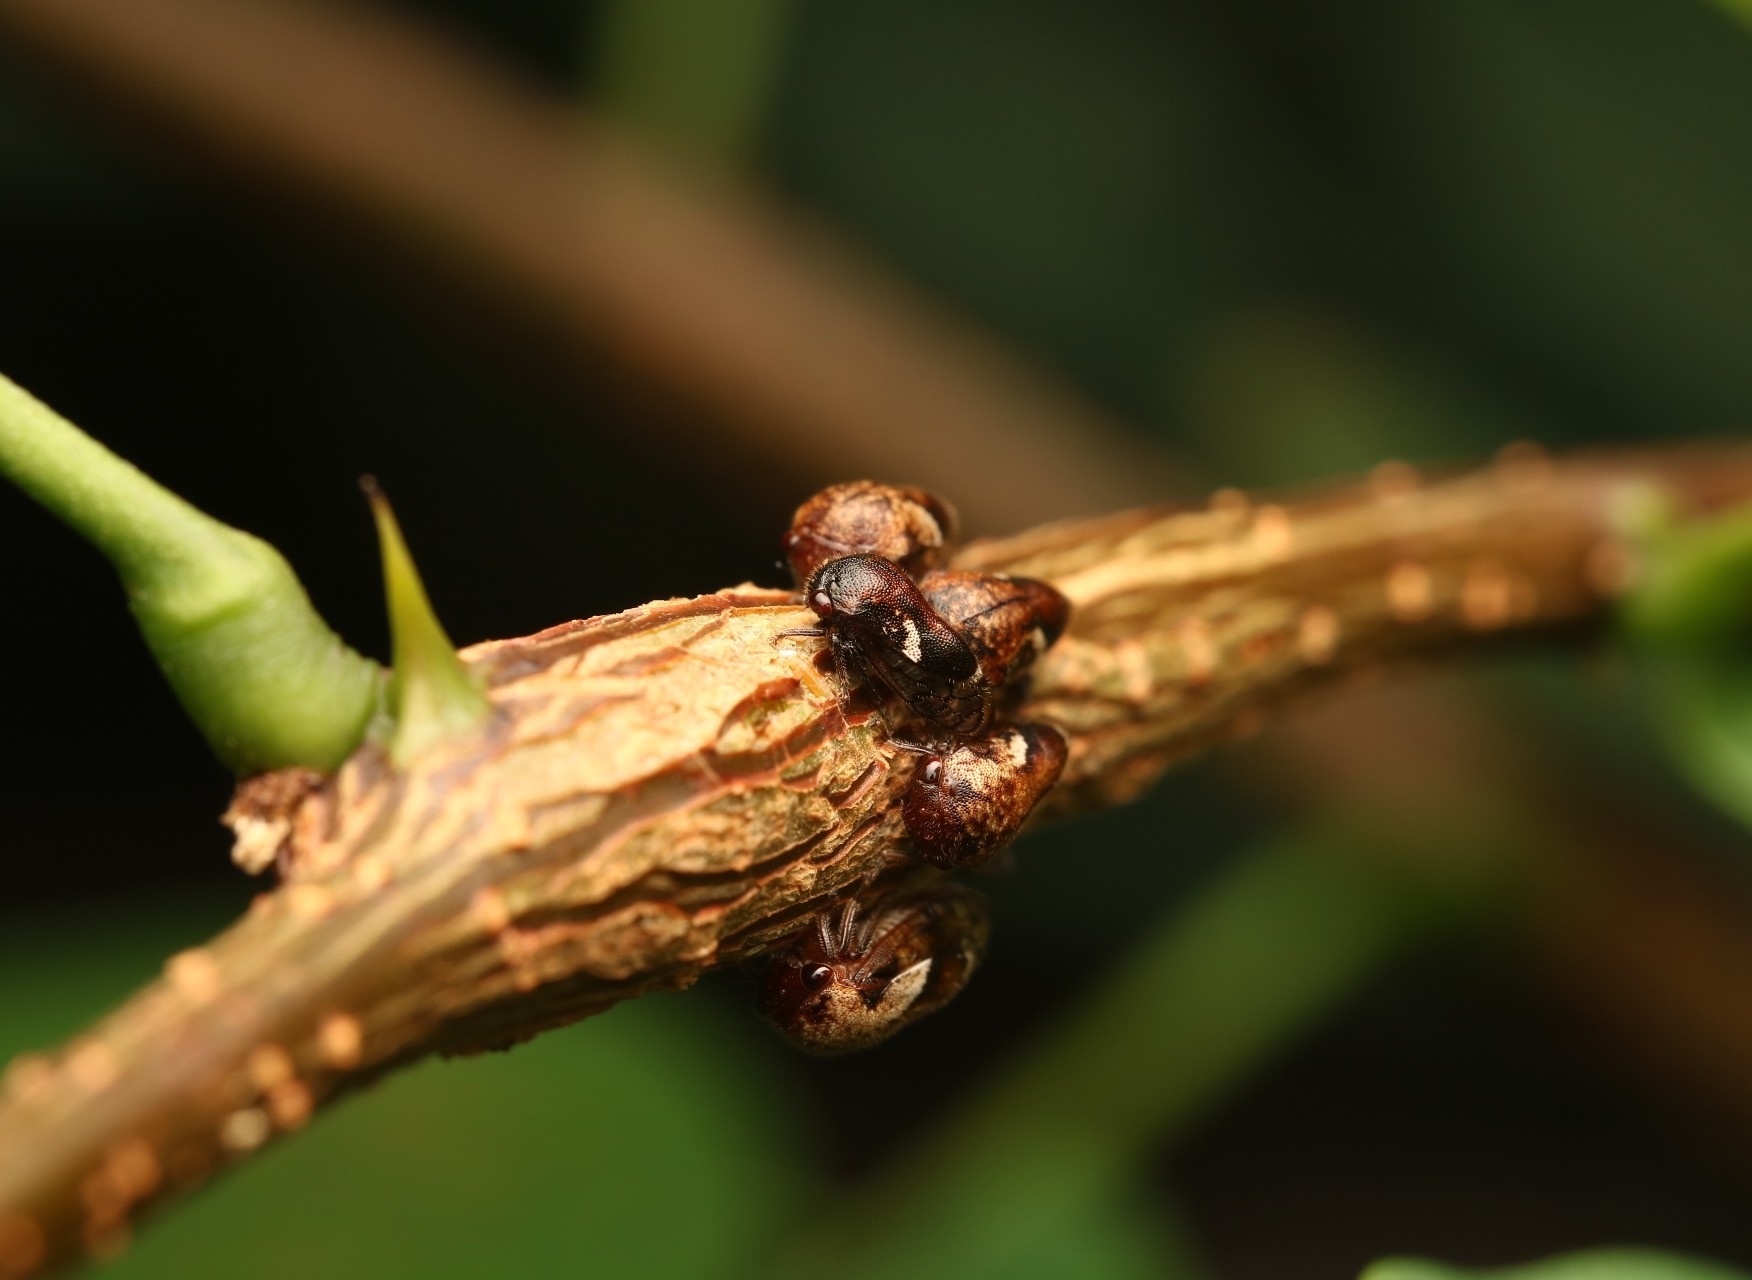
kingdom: Animalia
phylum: Arthropoda
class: Insecta
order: Hemiptera
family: Membracidae
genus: Vanduzea
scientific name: Vanduzea arquata
